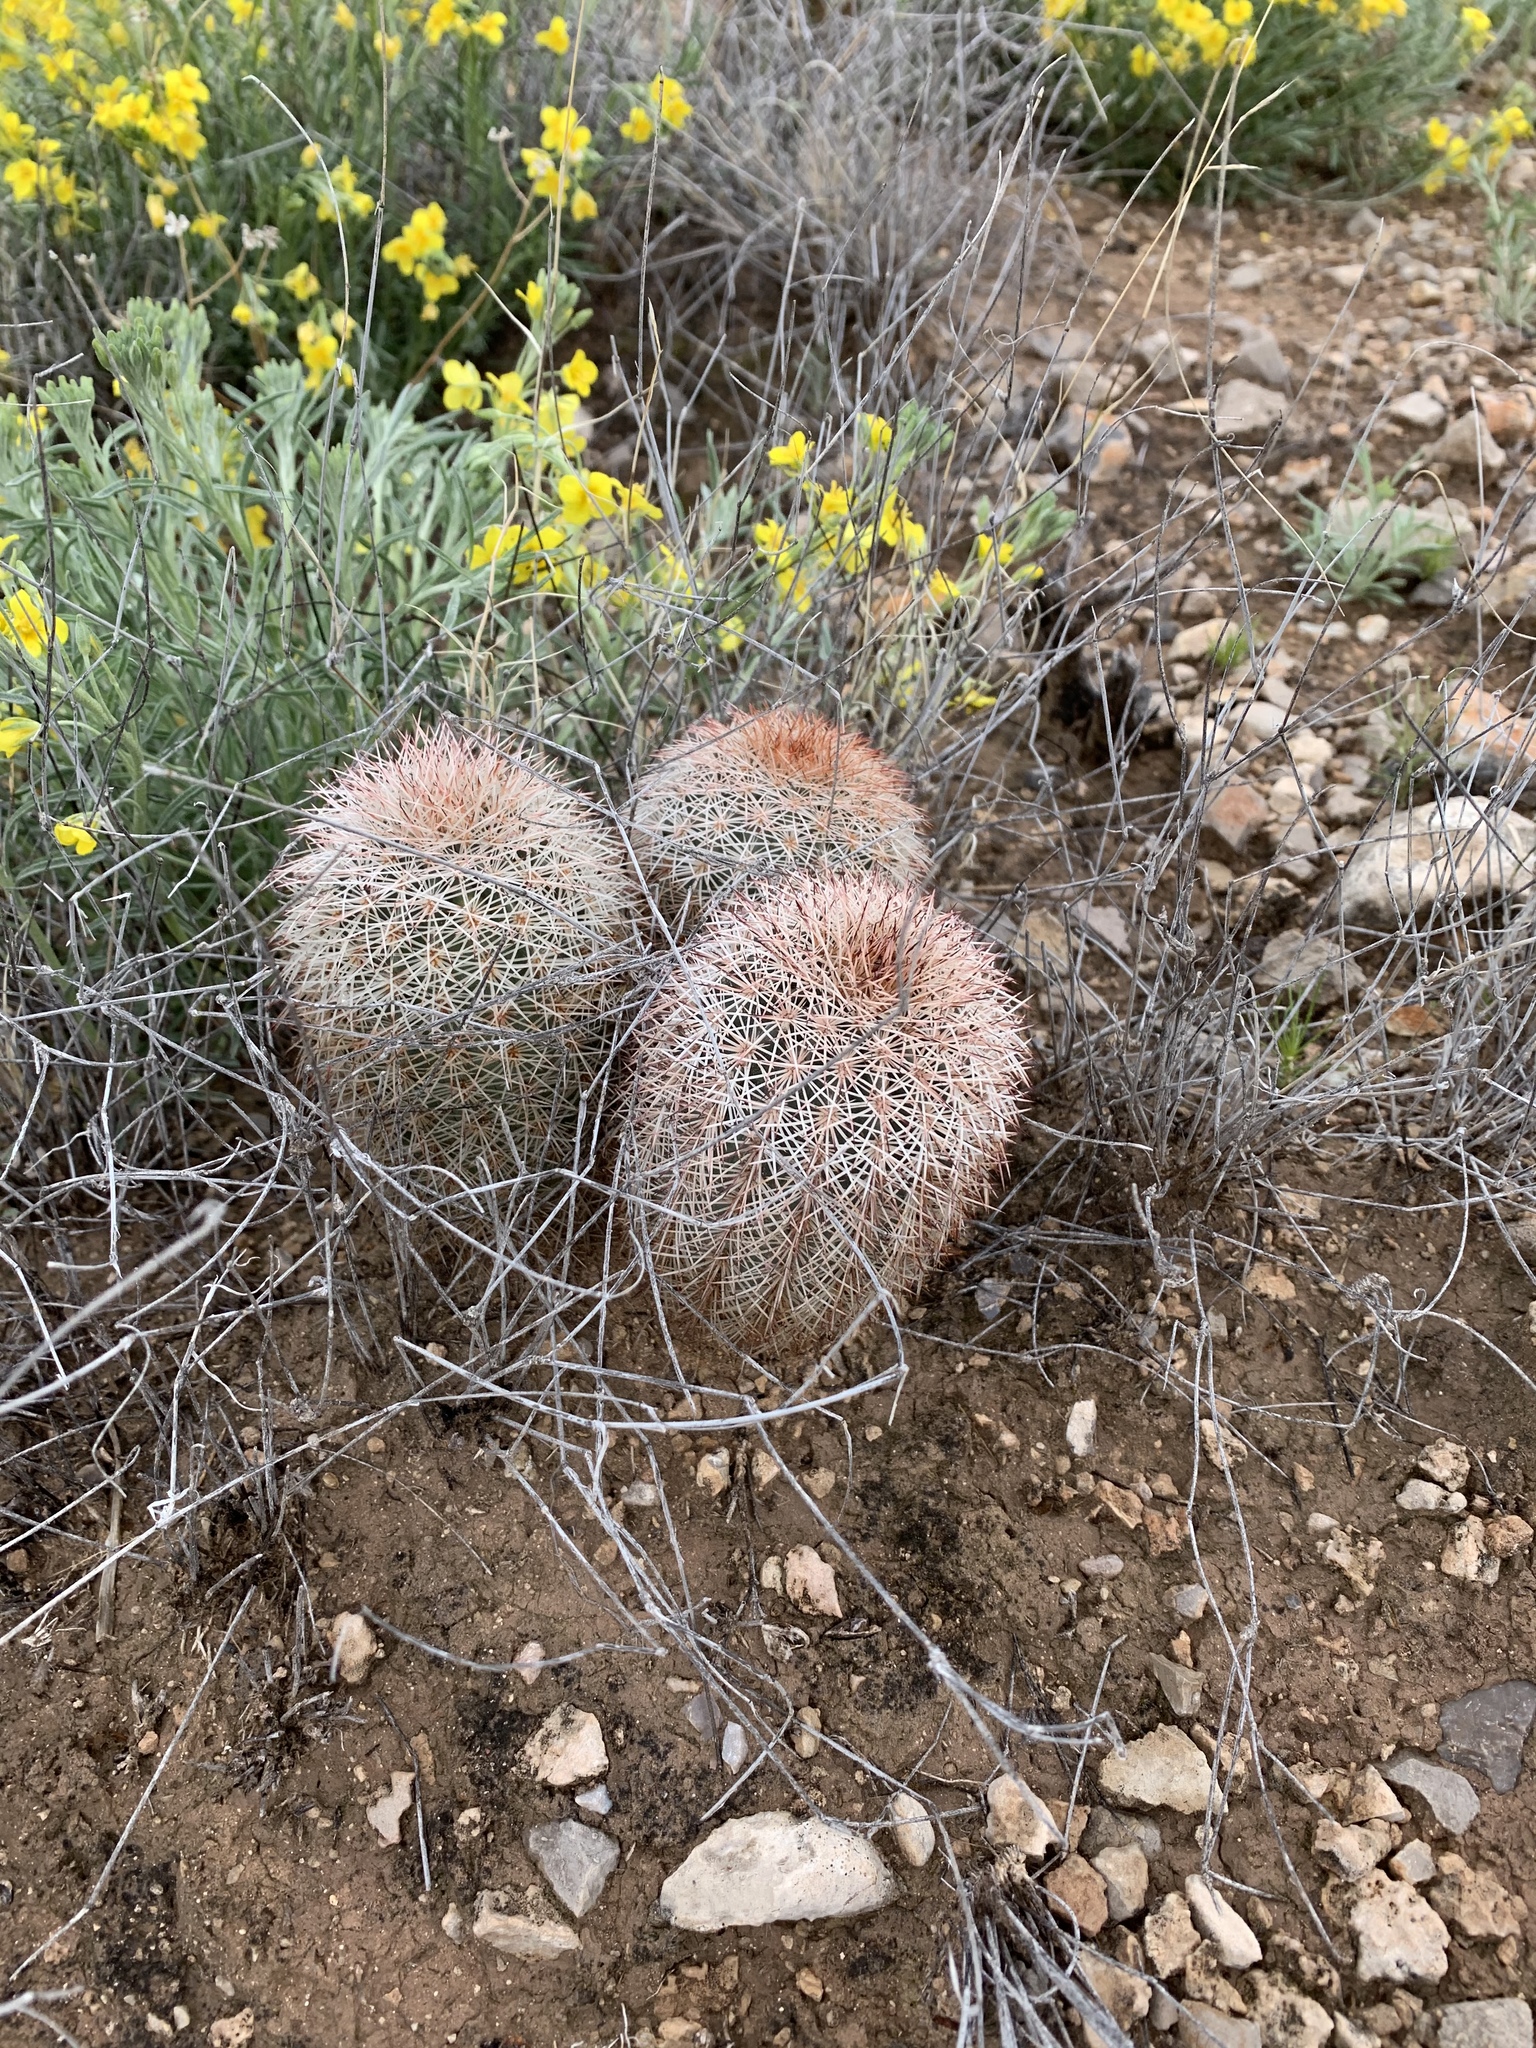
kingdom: Plantae
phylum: Tracheophyta
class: Magnoliopsida
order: Caryophyllales
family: Cactaceae
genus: Echinocereus
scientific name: Echinocereus dasyacanthus
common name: Spiny hedgehog cactus
